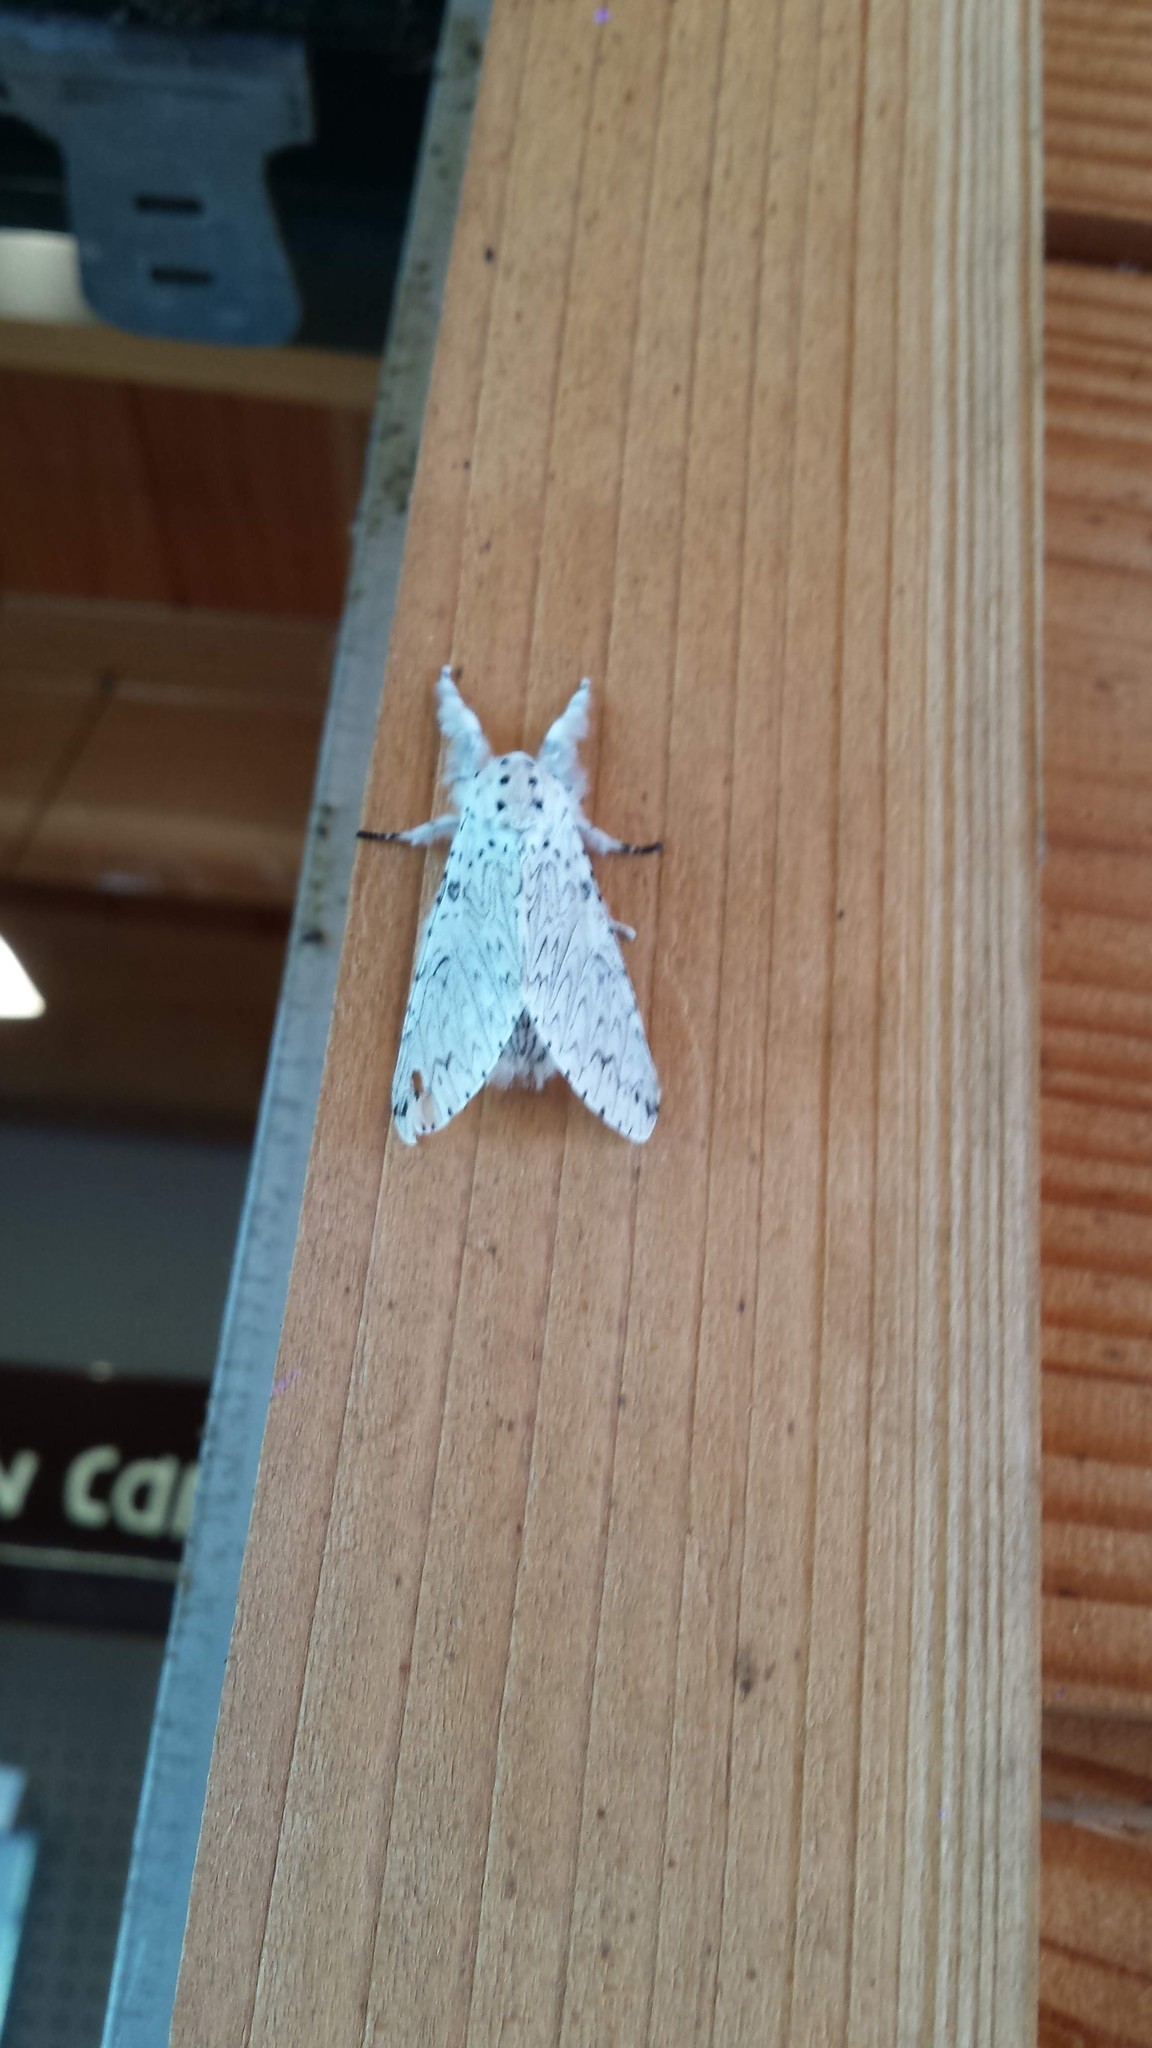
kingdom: Animalia
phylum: Arthropoda
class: Insecta
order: Lepidoptera
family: Notodontidae
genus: Cerura
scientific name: Cerura erminea
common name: Lesser puss moth
